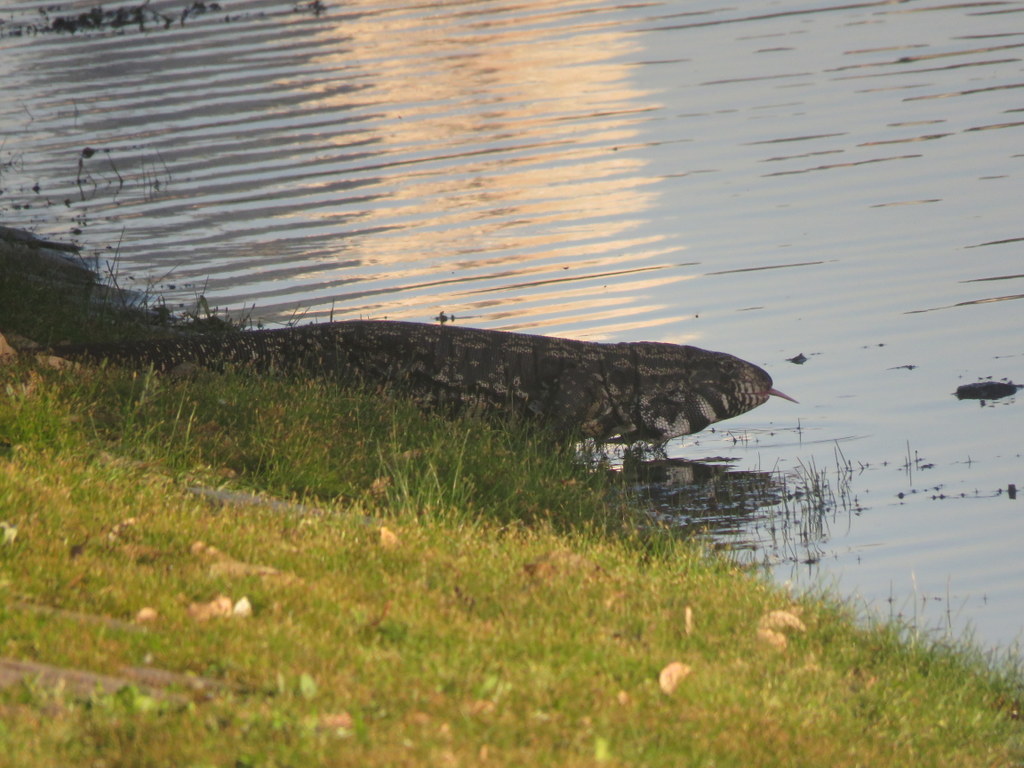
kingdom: Animalia
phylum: Chordata
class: Squamata
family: Teiidae
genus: Salvator
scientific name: Salvator merianae
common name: Argentine black and white tegu
